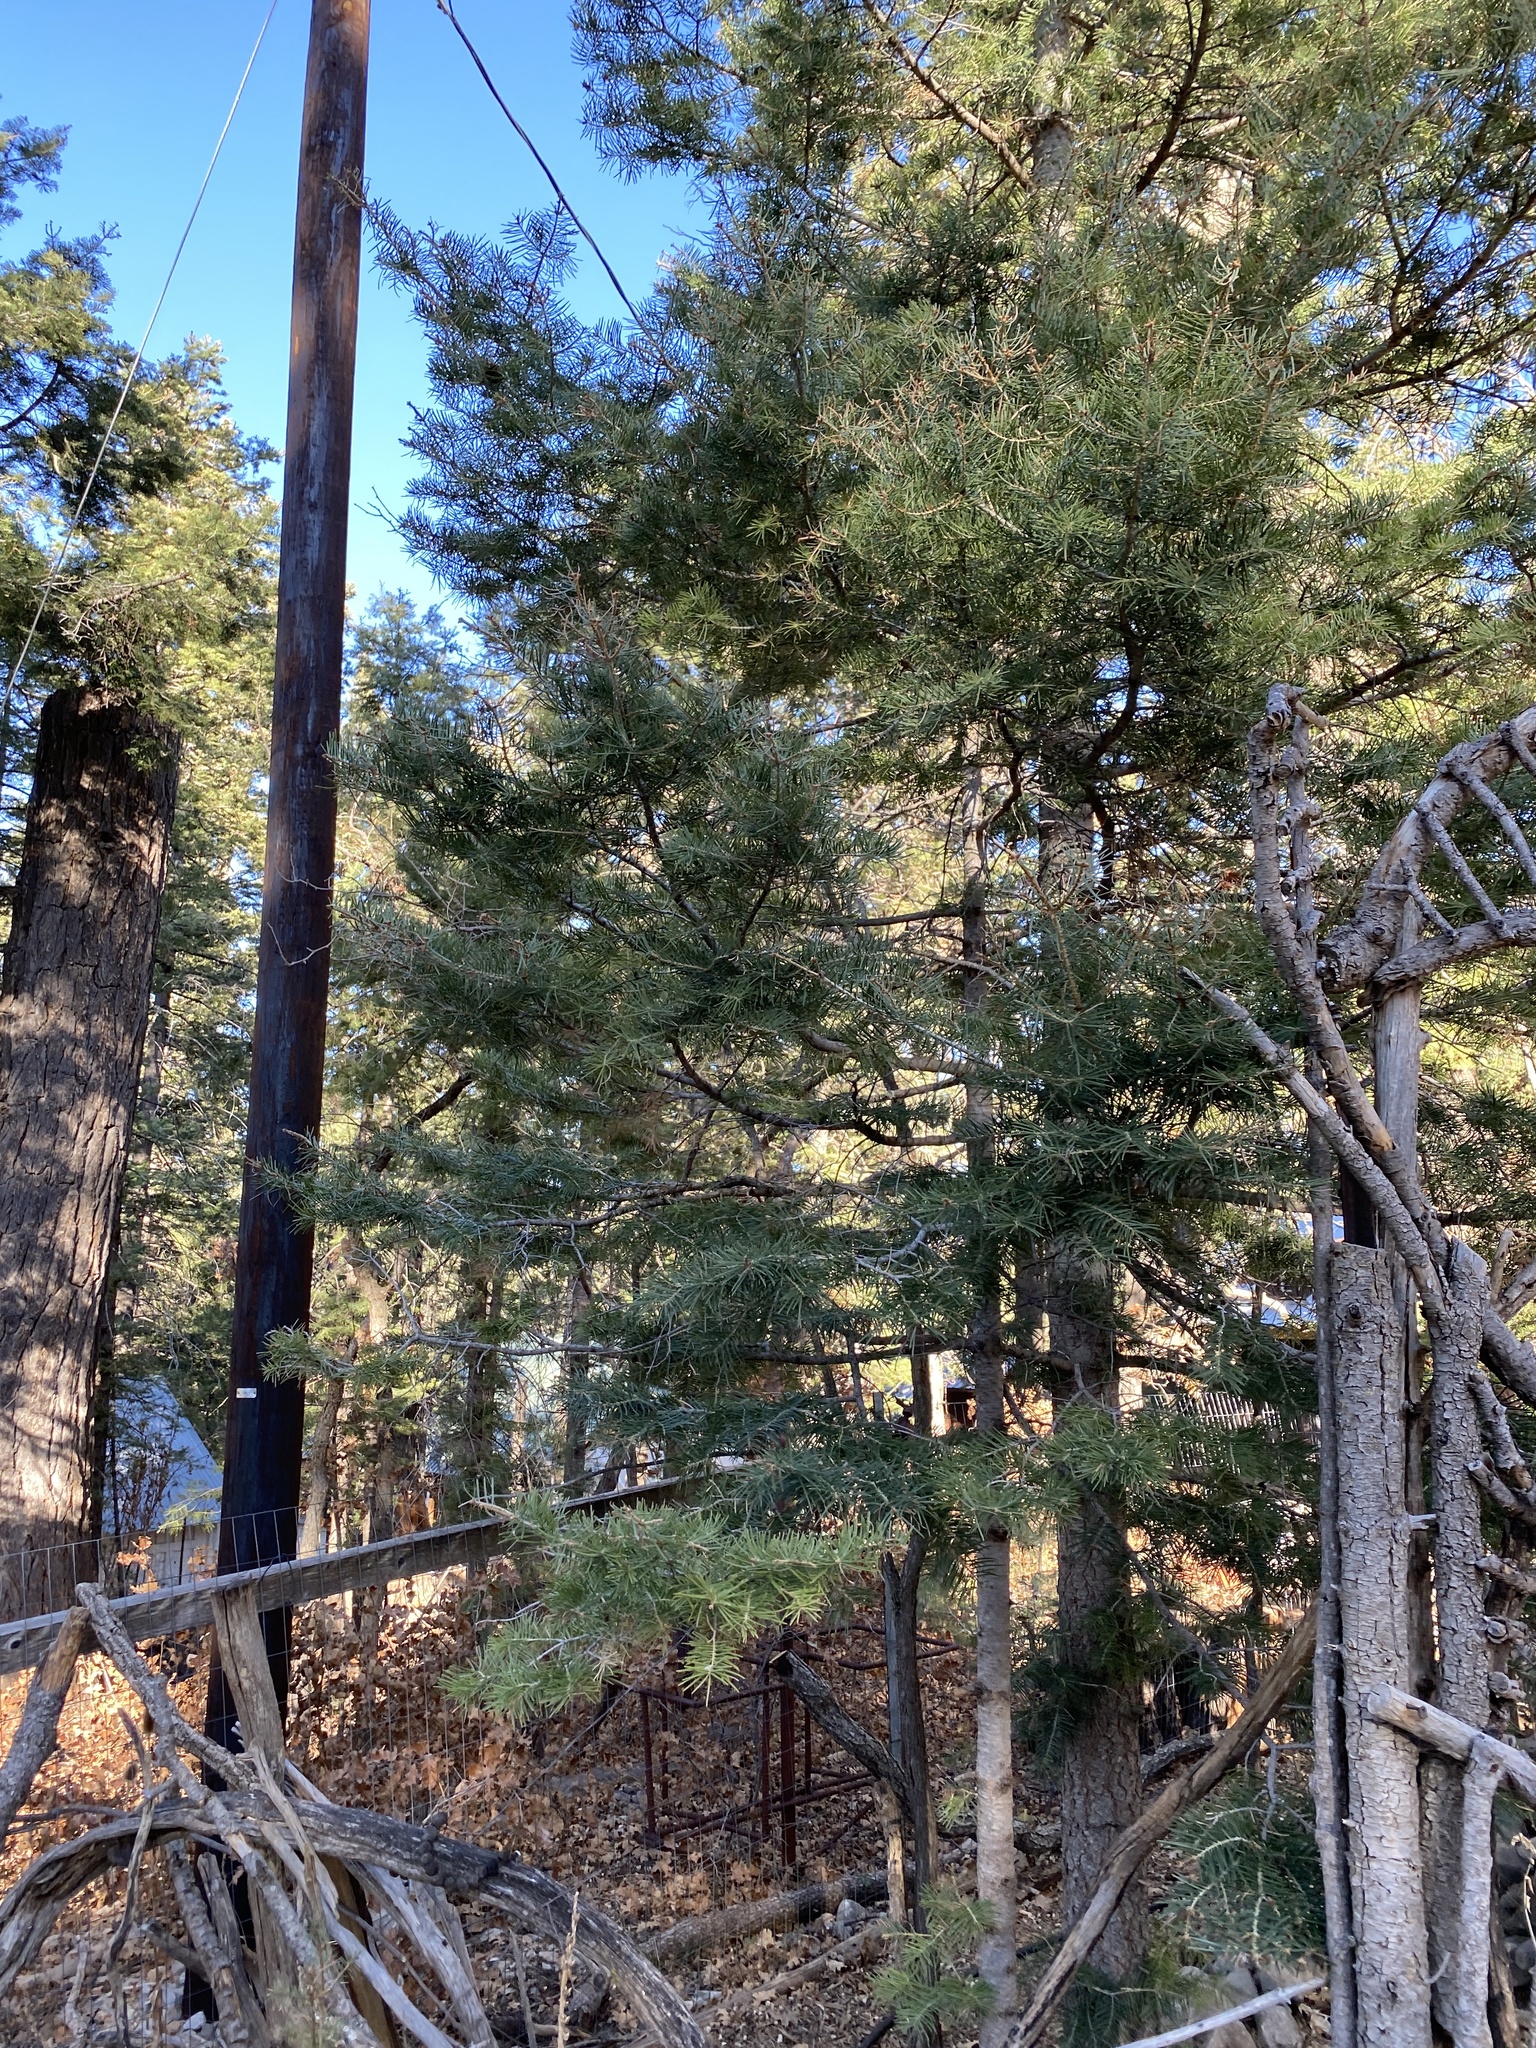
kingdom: Plantae
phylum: Tracheophyta
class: Pinopsida
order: Pinales
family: Pinaceae
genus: Abies
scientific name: Abies concolor
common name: Colorado fir
